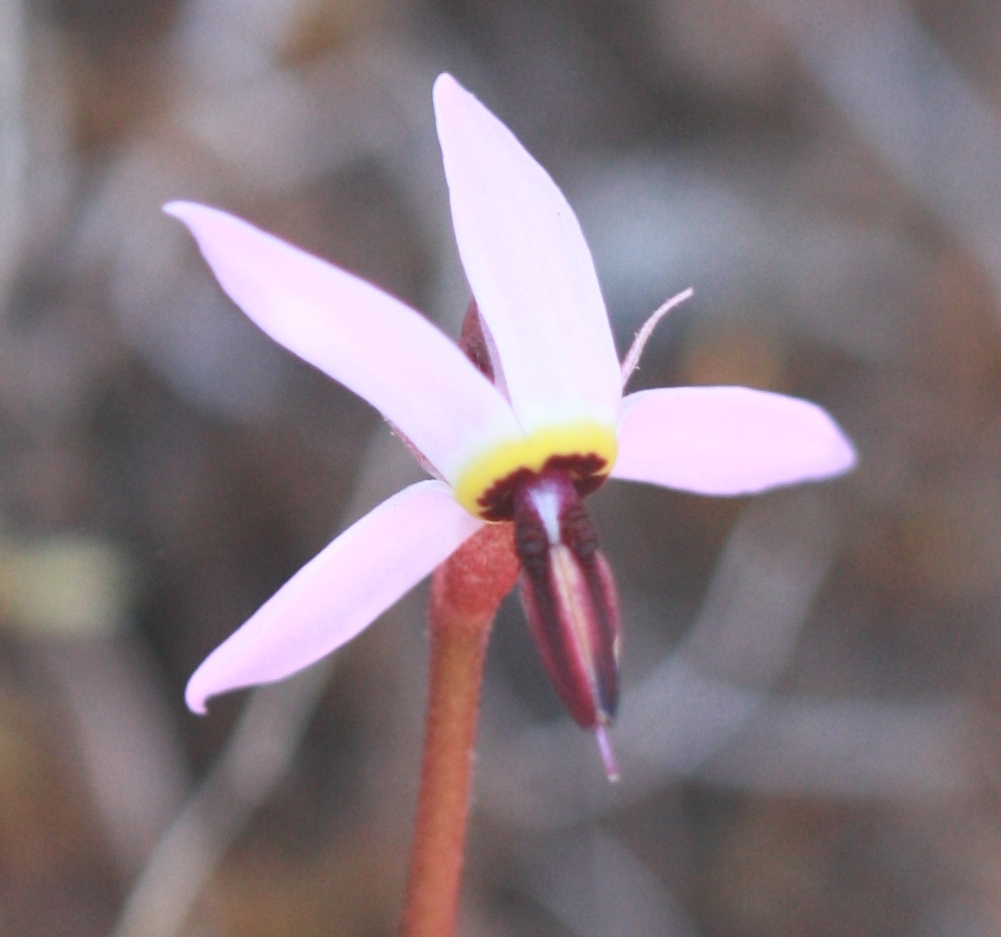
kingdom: Plantae
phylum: Tracheophyta
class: Magnoliopsida
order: Ericales
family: Primulaceae
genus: Dodecatheon
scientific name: Dodecatheon hendersonii
